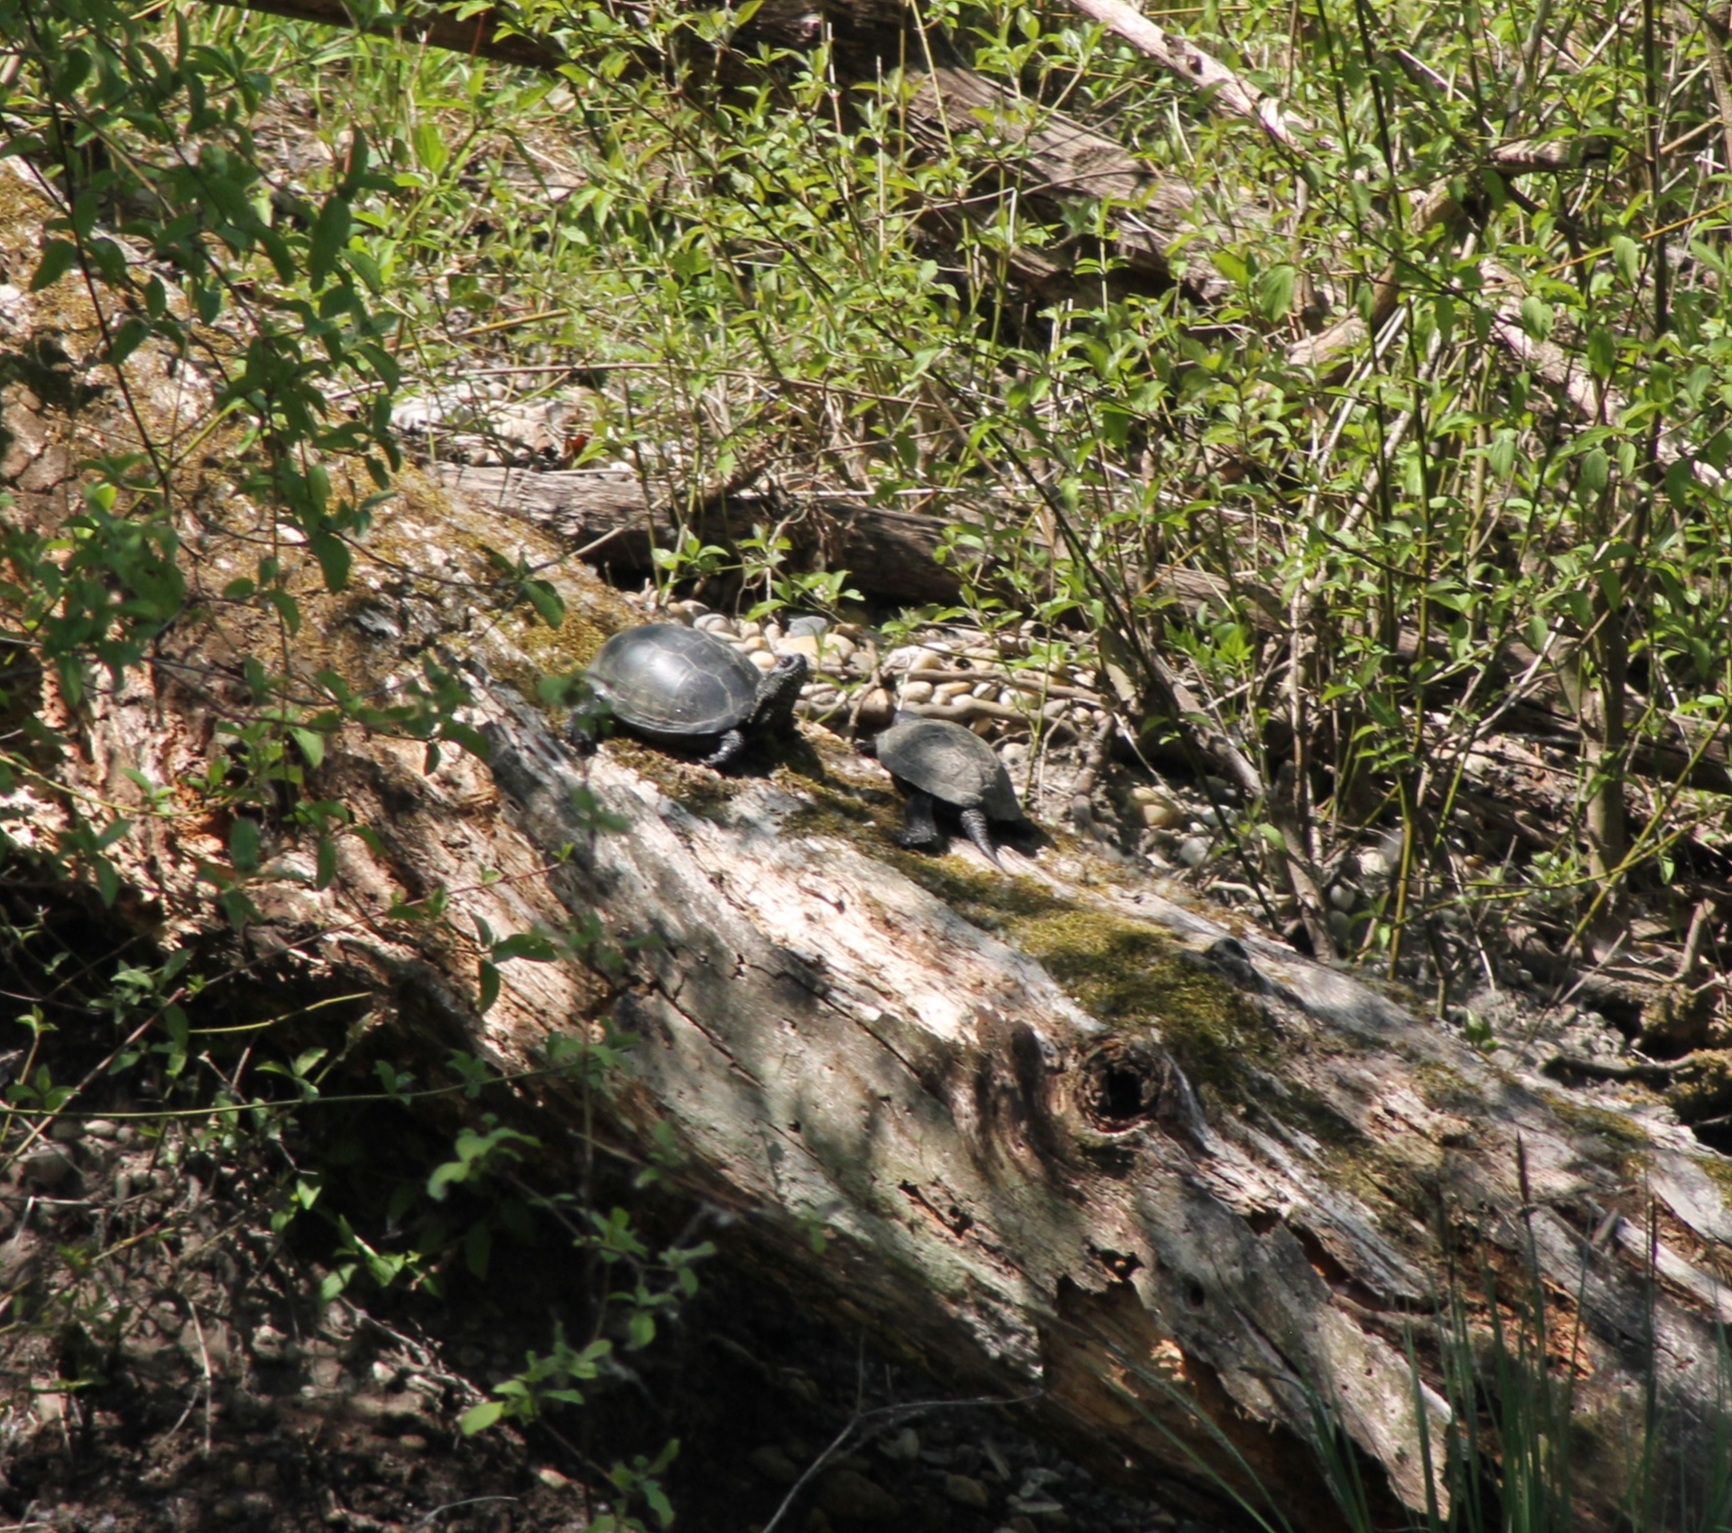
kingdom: Animalia
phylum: Chordata
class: Testudines
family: Emydidae
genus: Emys
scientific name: Emys orbicularis
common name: European pond turtle
